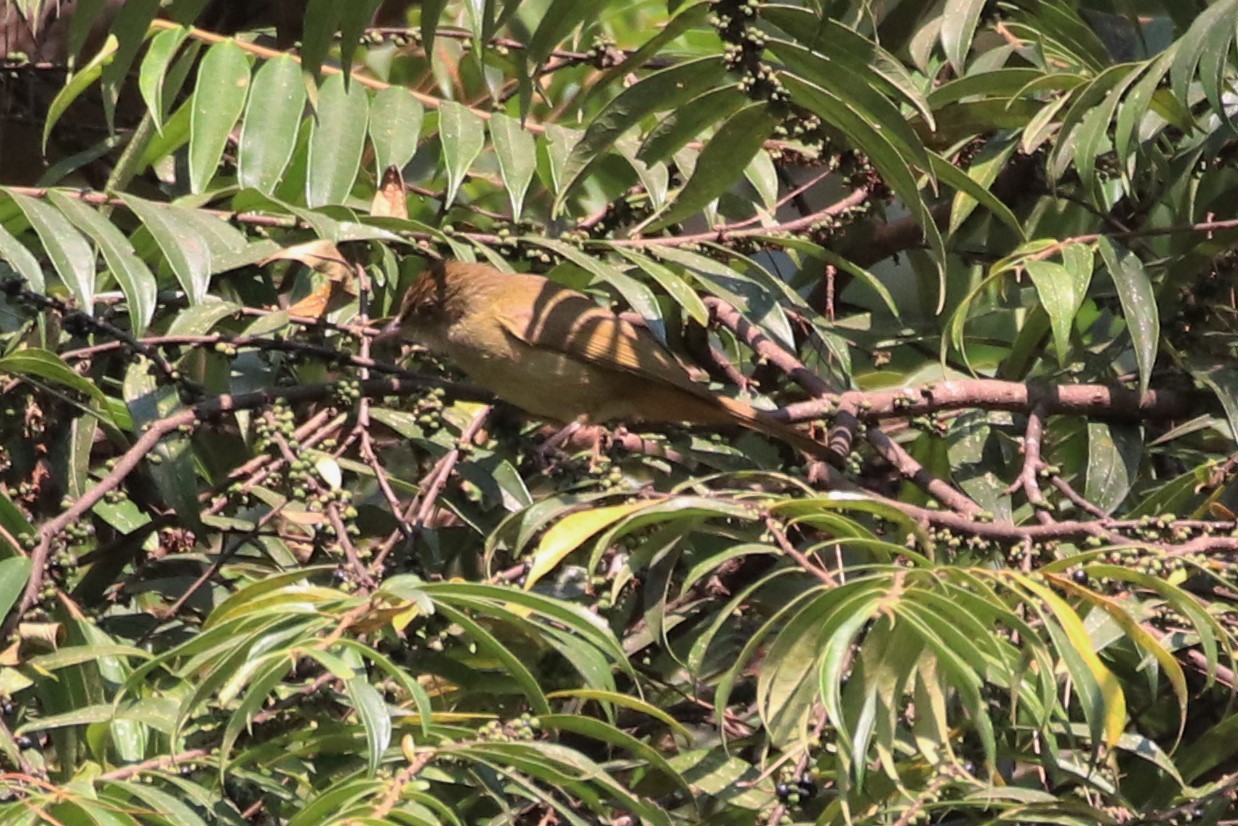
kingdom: Animalia
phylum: Chordata
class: Aves
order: Passeriformes
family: Pycnonotidae
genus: Iole
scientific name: Iole propinqua
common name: Grey-eyed bulbul
